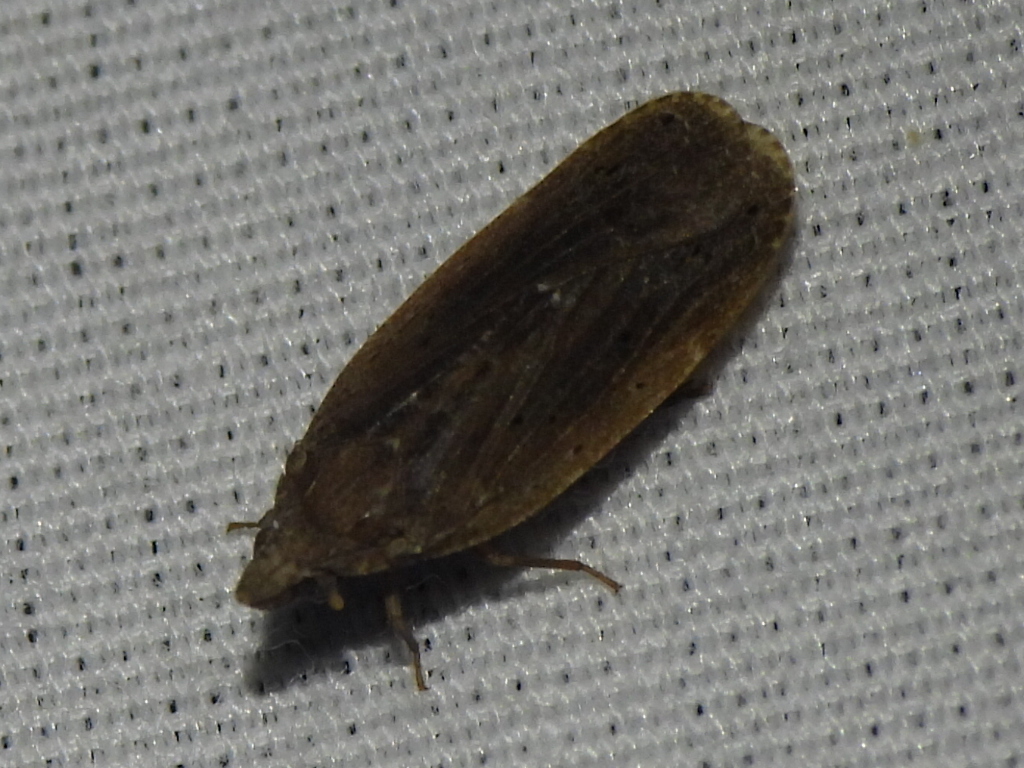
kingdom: Animalia
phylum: Arthropoda
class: Insecta
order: Hemiptera
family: Achilidae
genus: Cixidia
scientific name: Cixidia fusca
